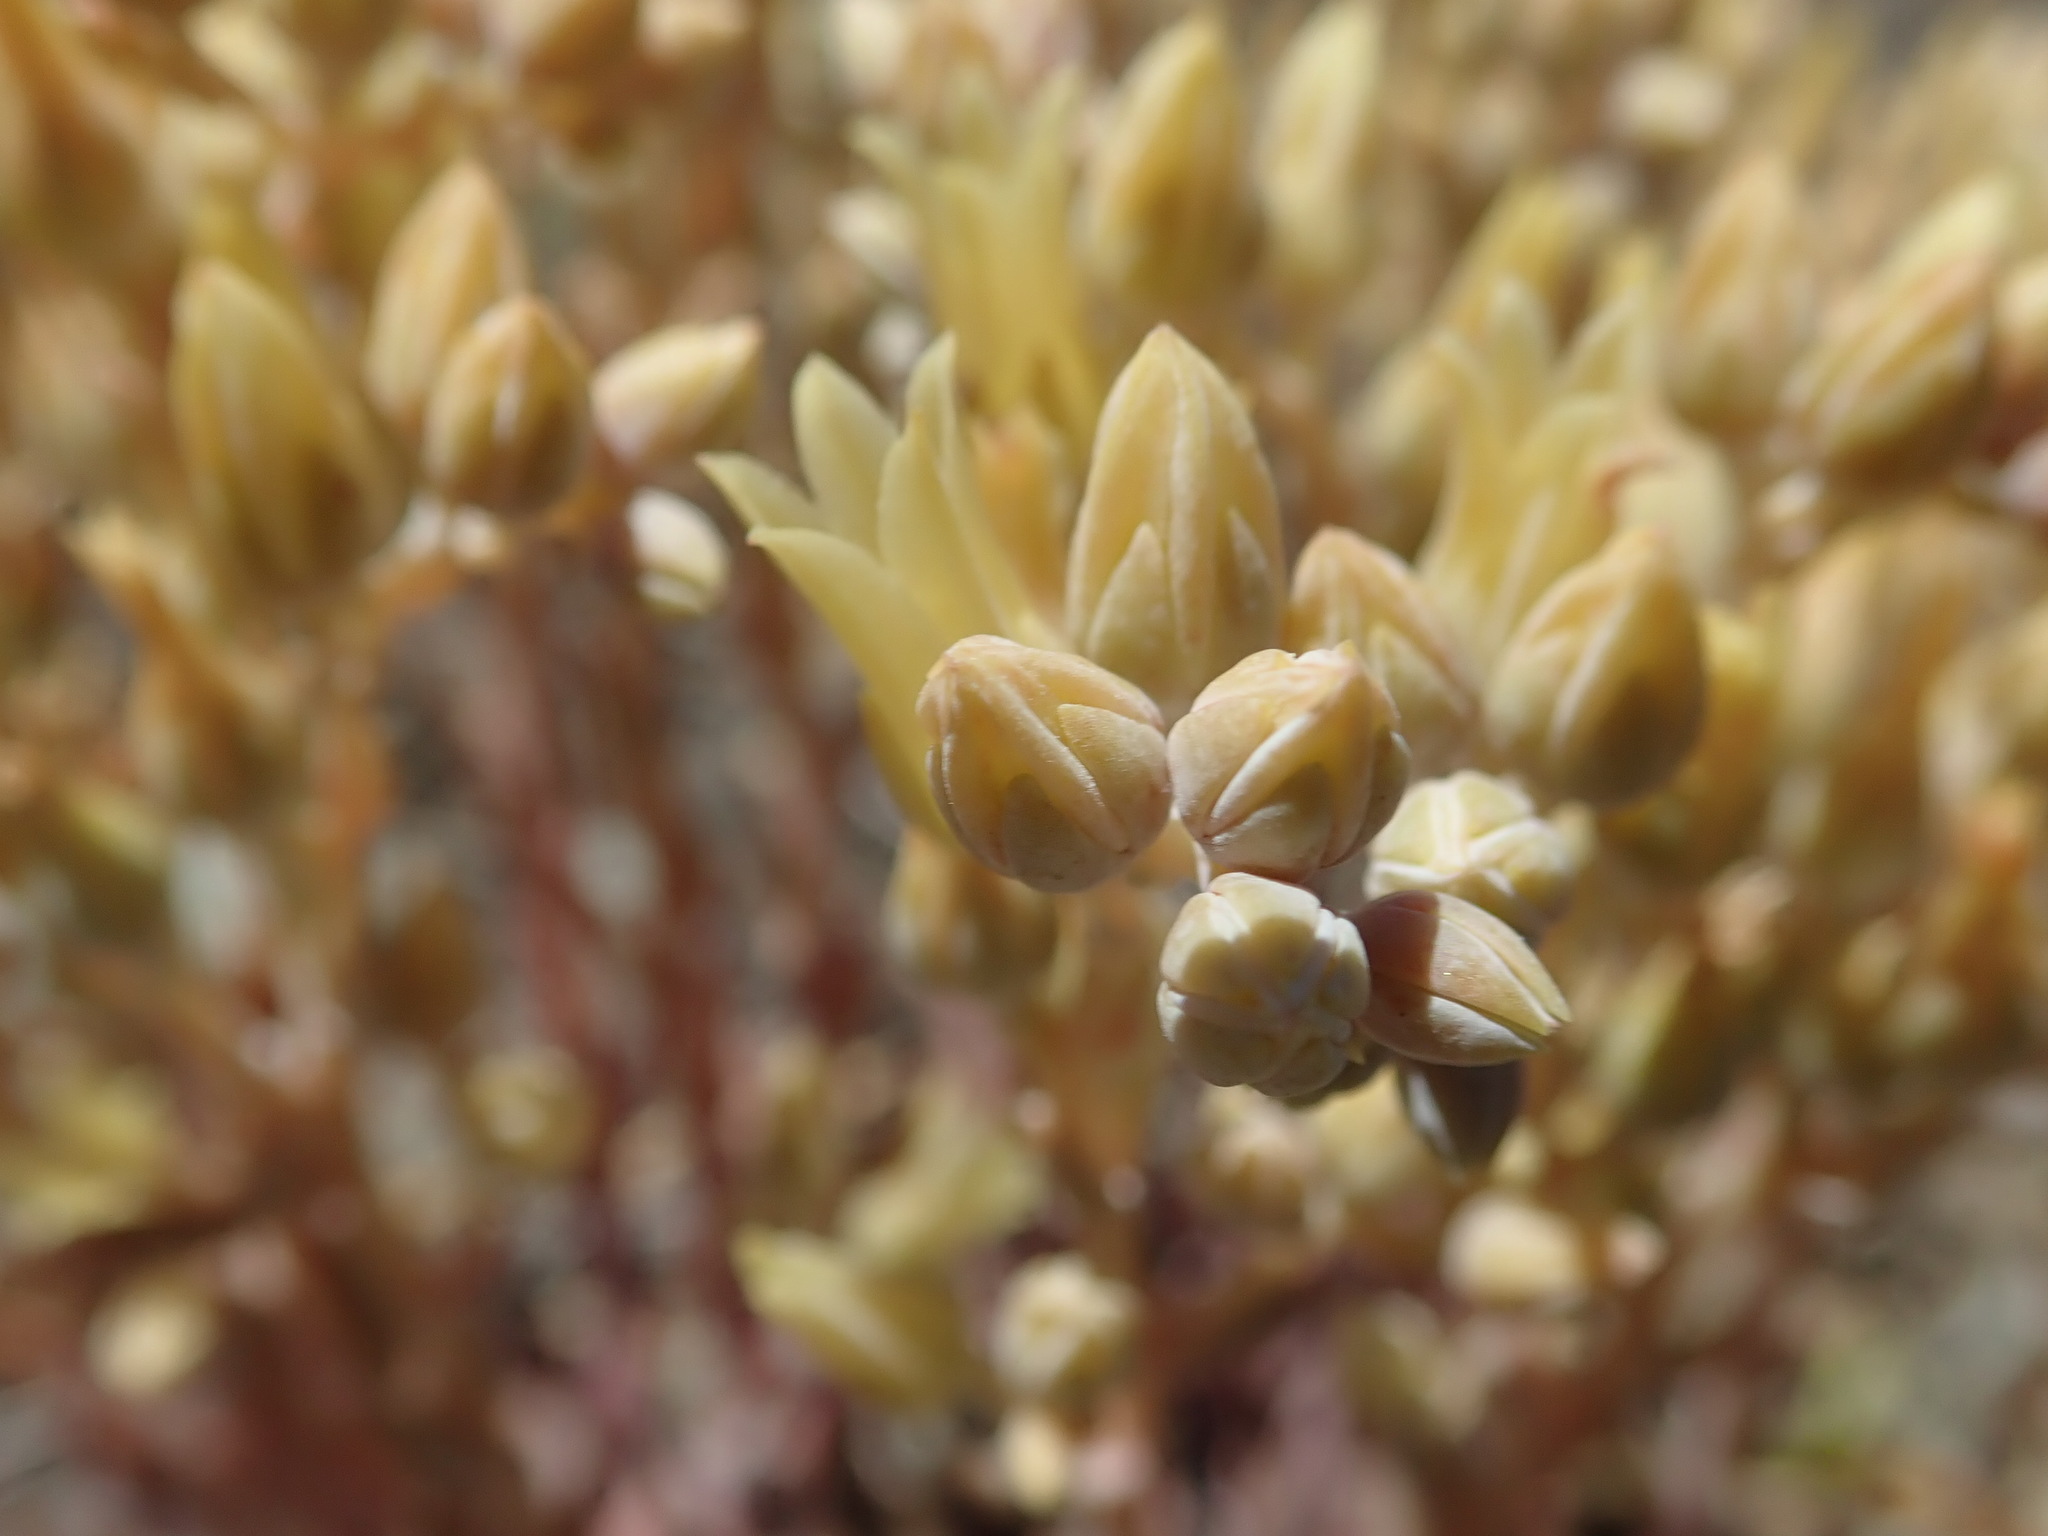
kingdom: Plantae
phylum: Tracheophyta
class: Magnoliopsida
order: Saxifragales
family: Crassulaceae
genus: Dudleya
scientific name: Dudleya abramsii
